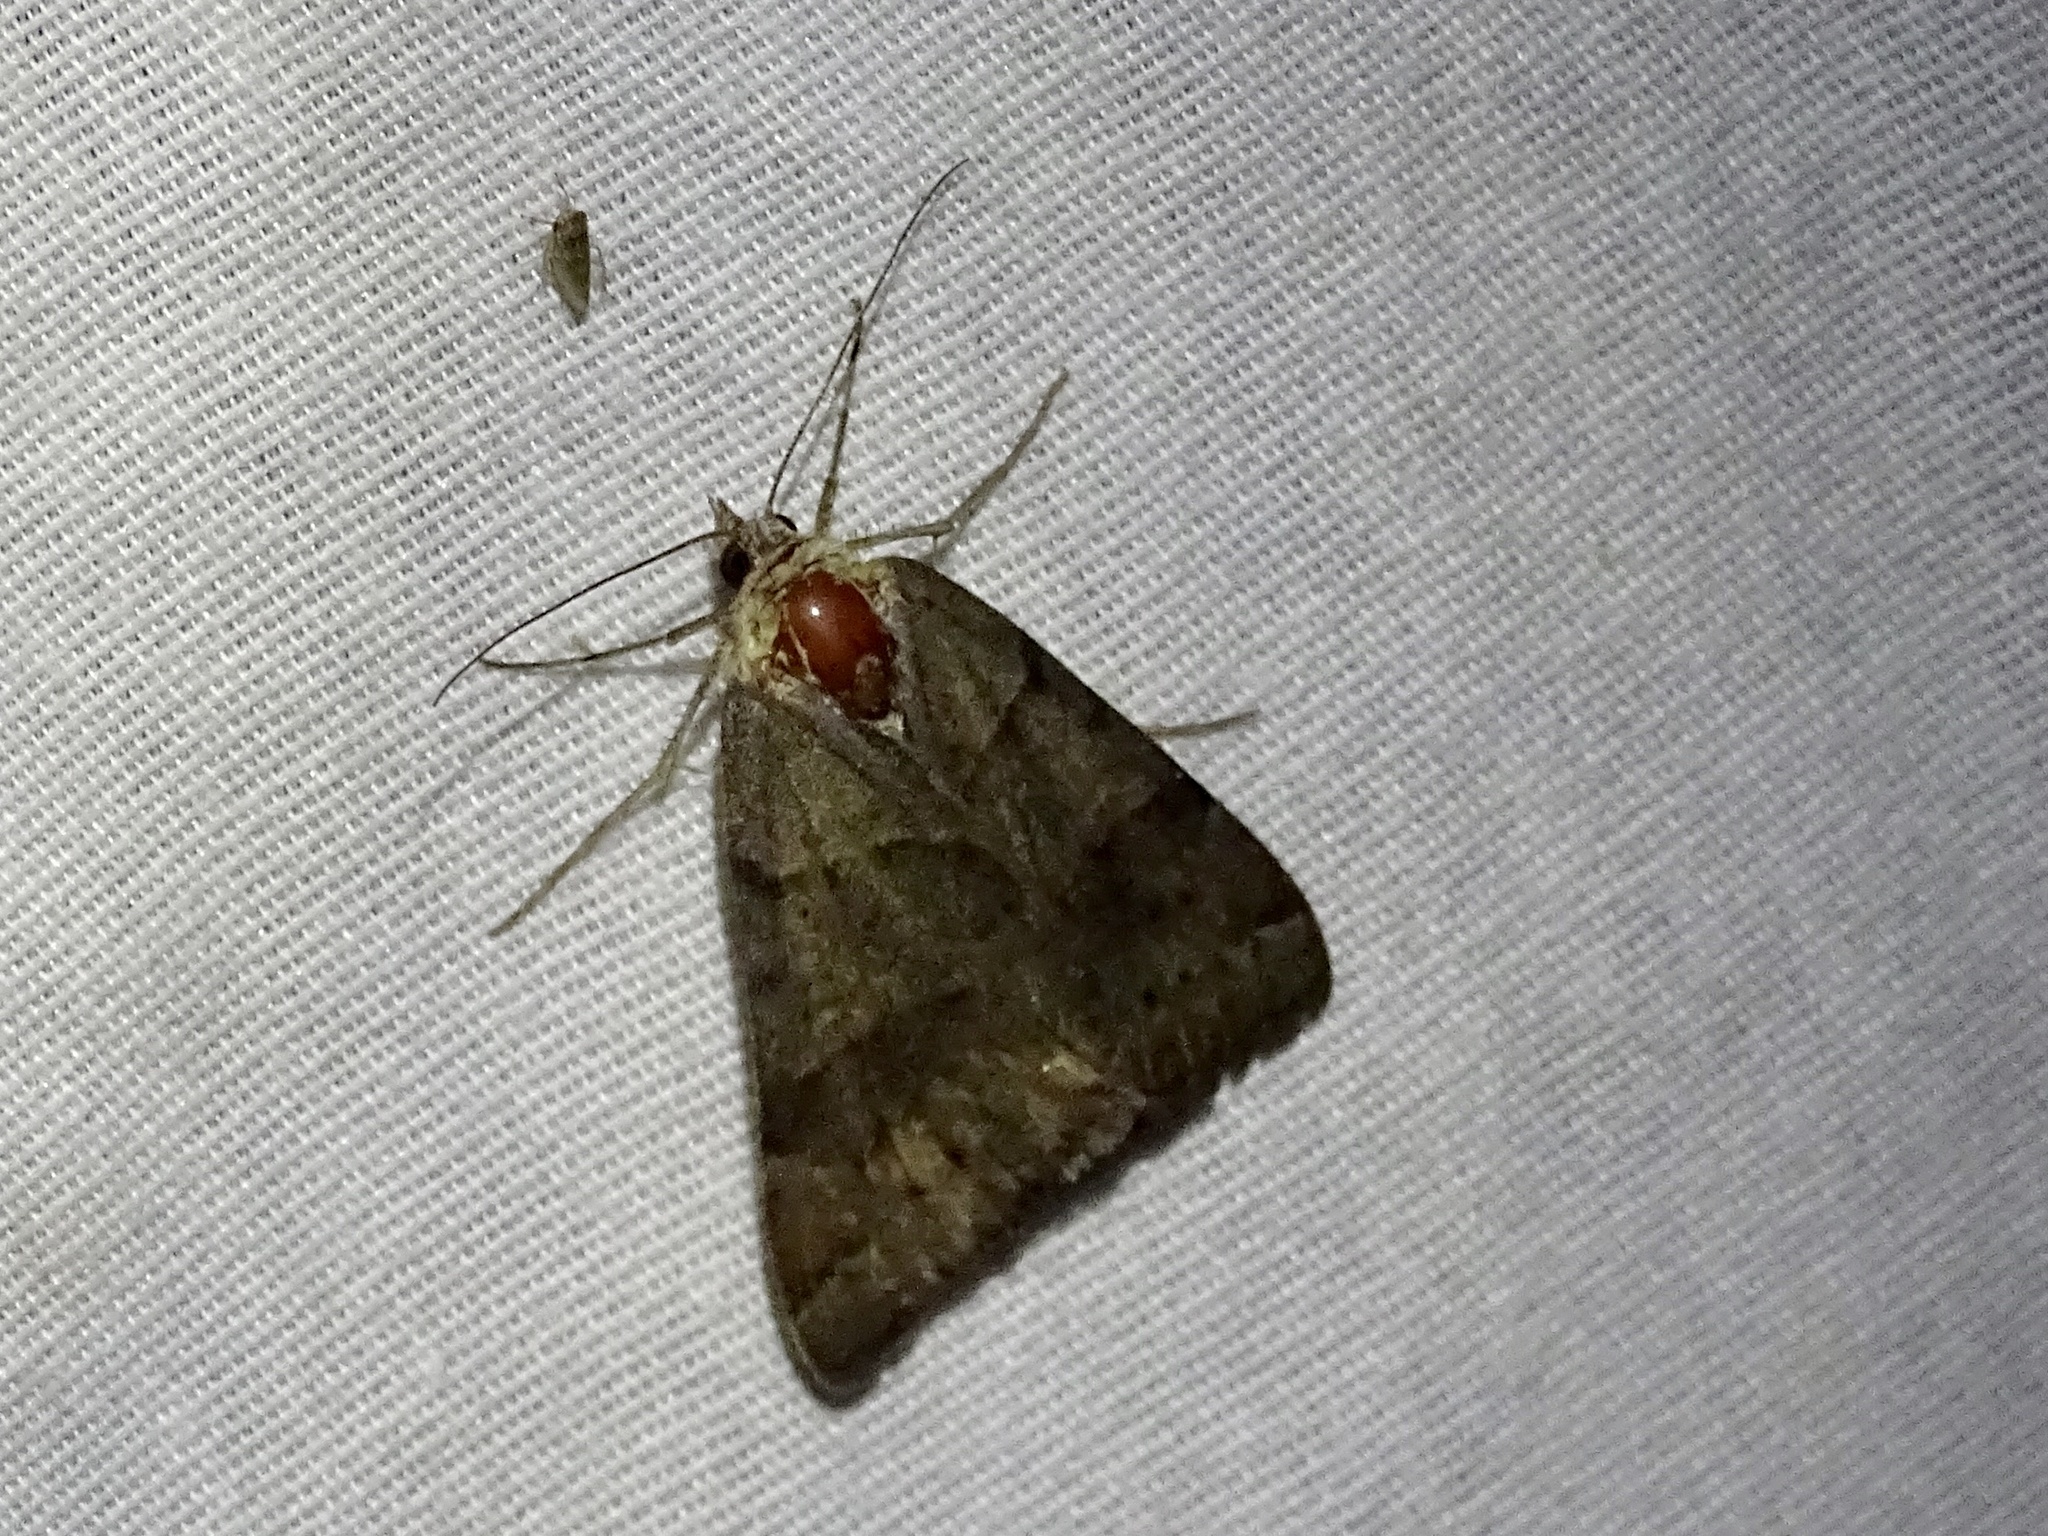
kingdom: Animalia
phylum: Arthropoda
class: Insecta
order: Lepidoptera
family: Erebidae
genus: Caenurgina
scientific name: Caenurgina erechtea
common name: Forage looper moth
